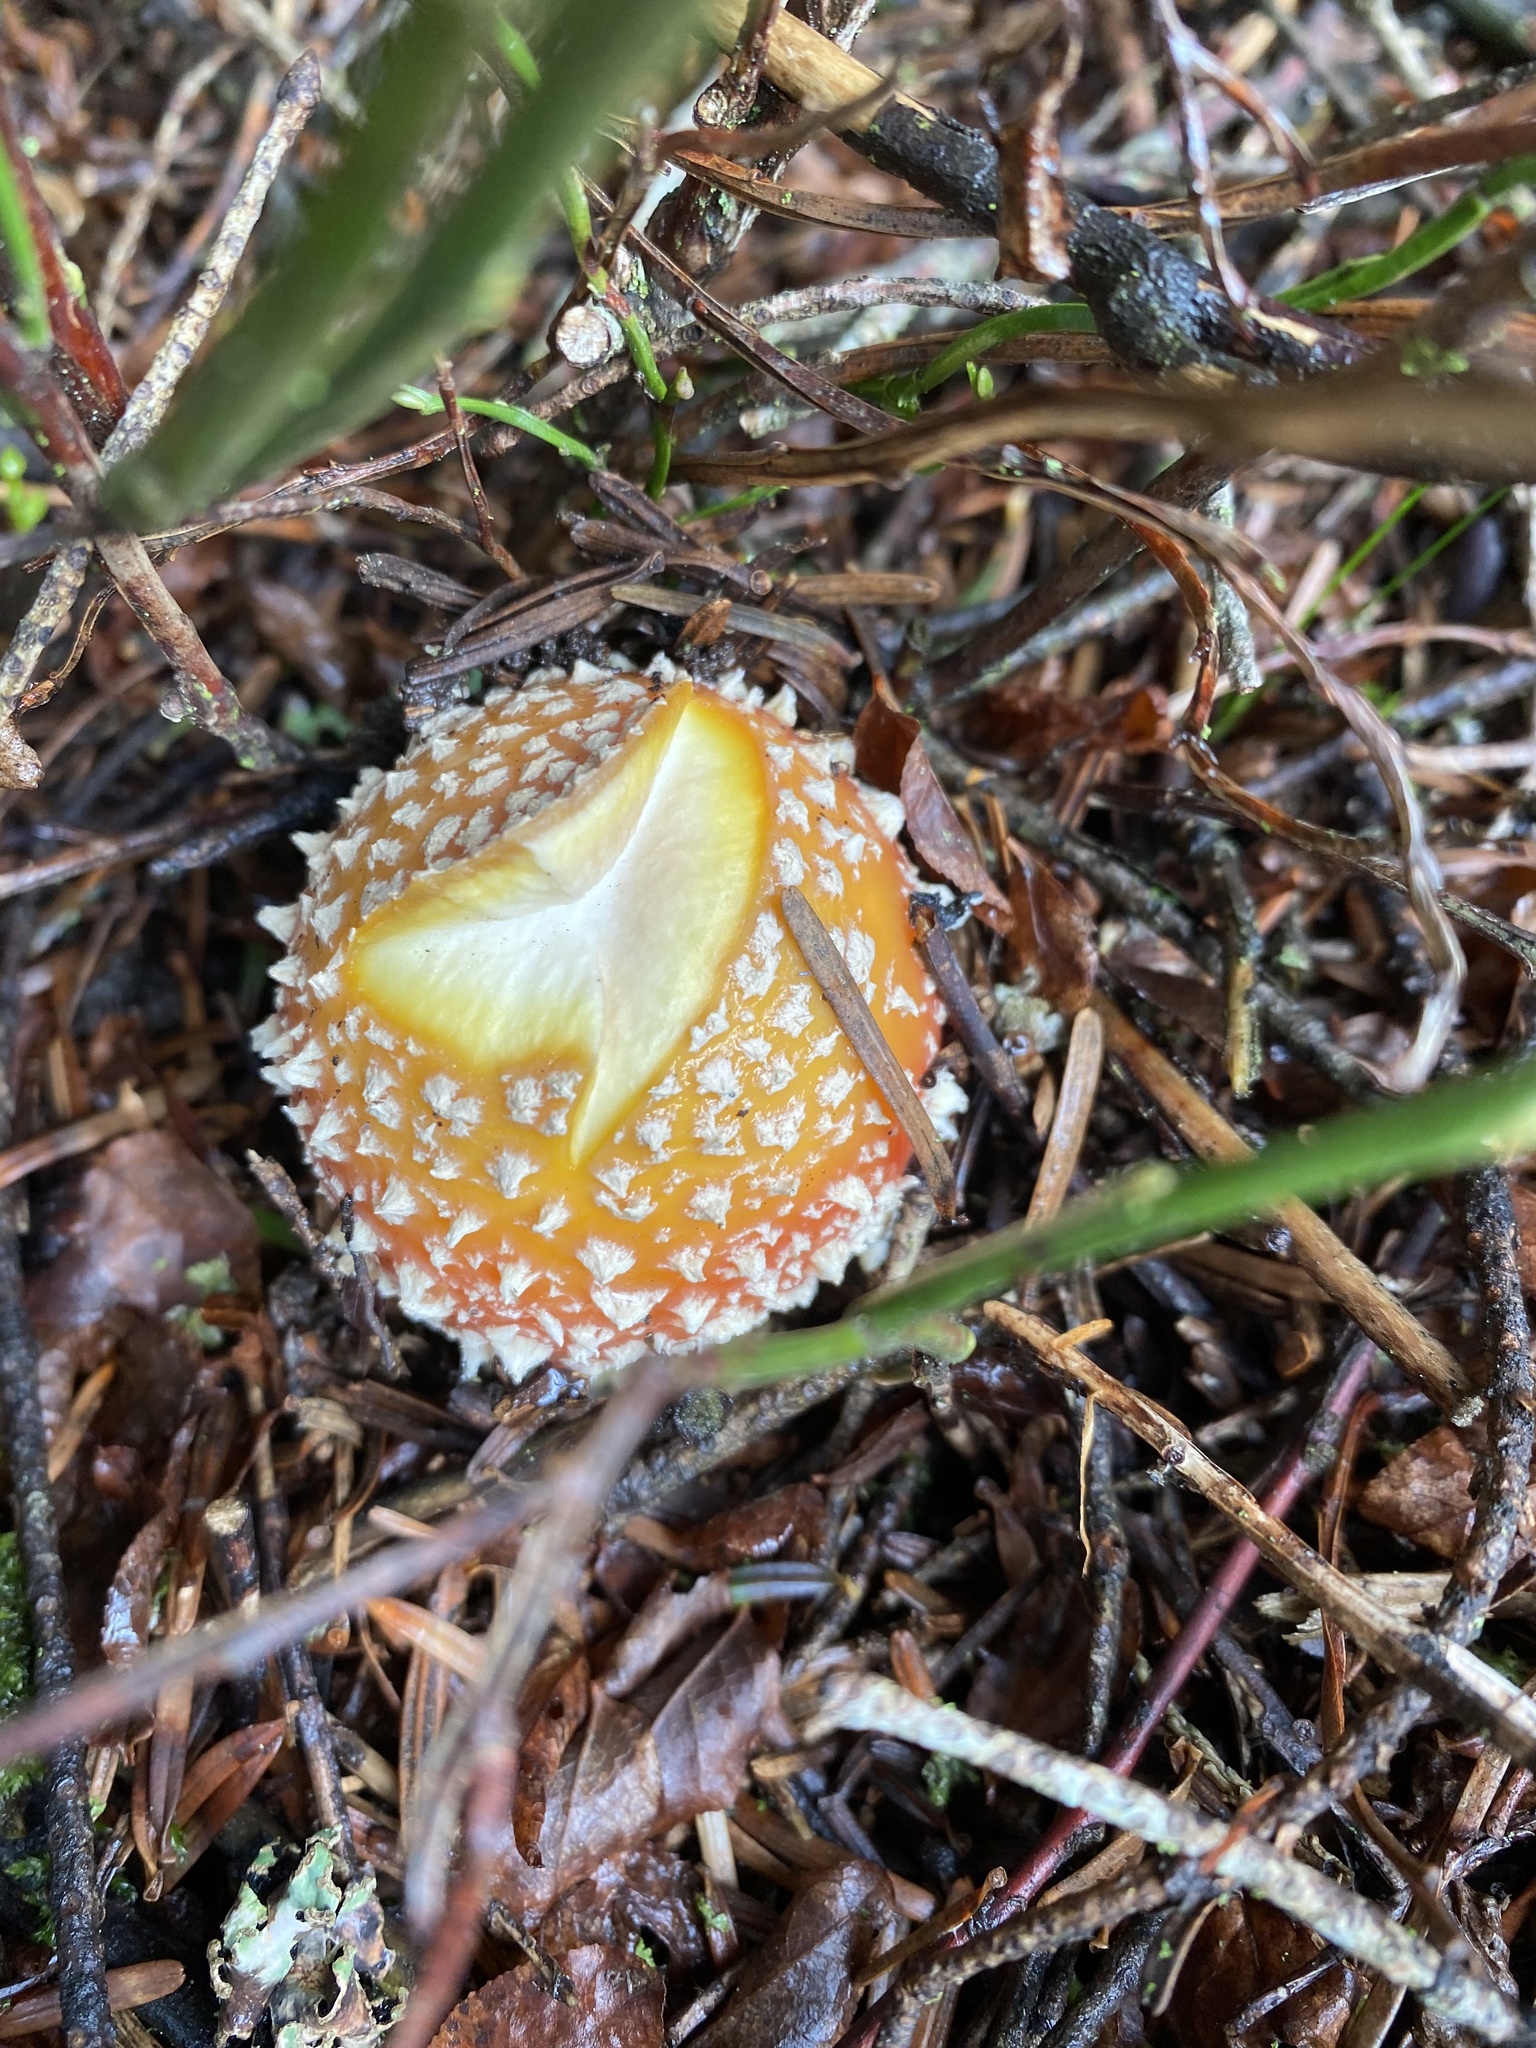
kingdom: Fungi
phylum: Basidiomycota
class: Agaricomycetes
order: Agaricales
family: Amanitaceae
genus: Amanita
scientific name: Amanita muscaria
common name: Fly agaric
